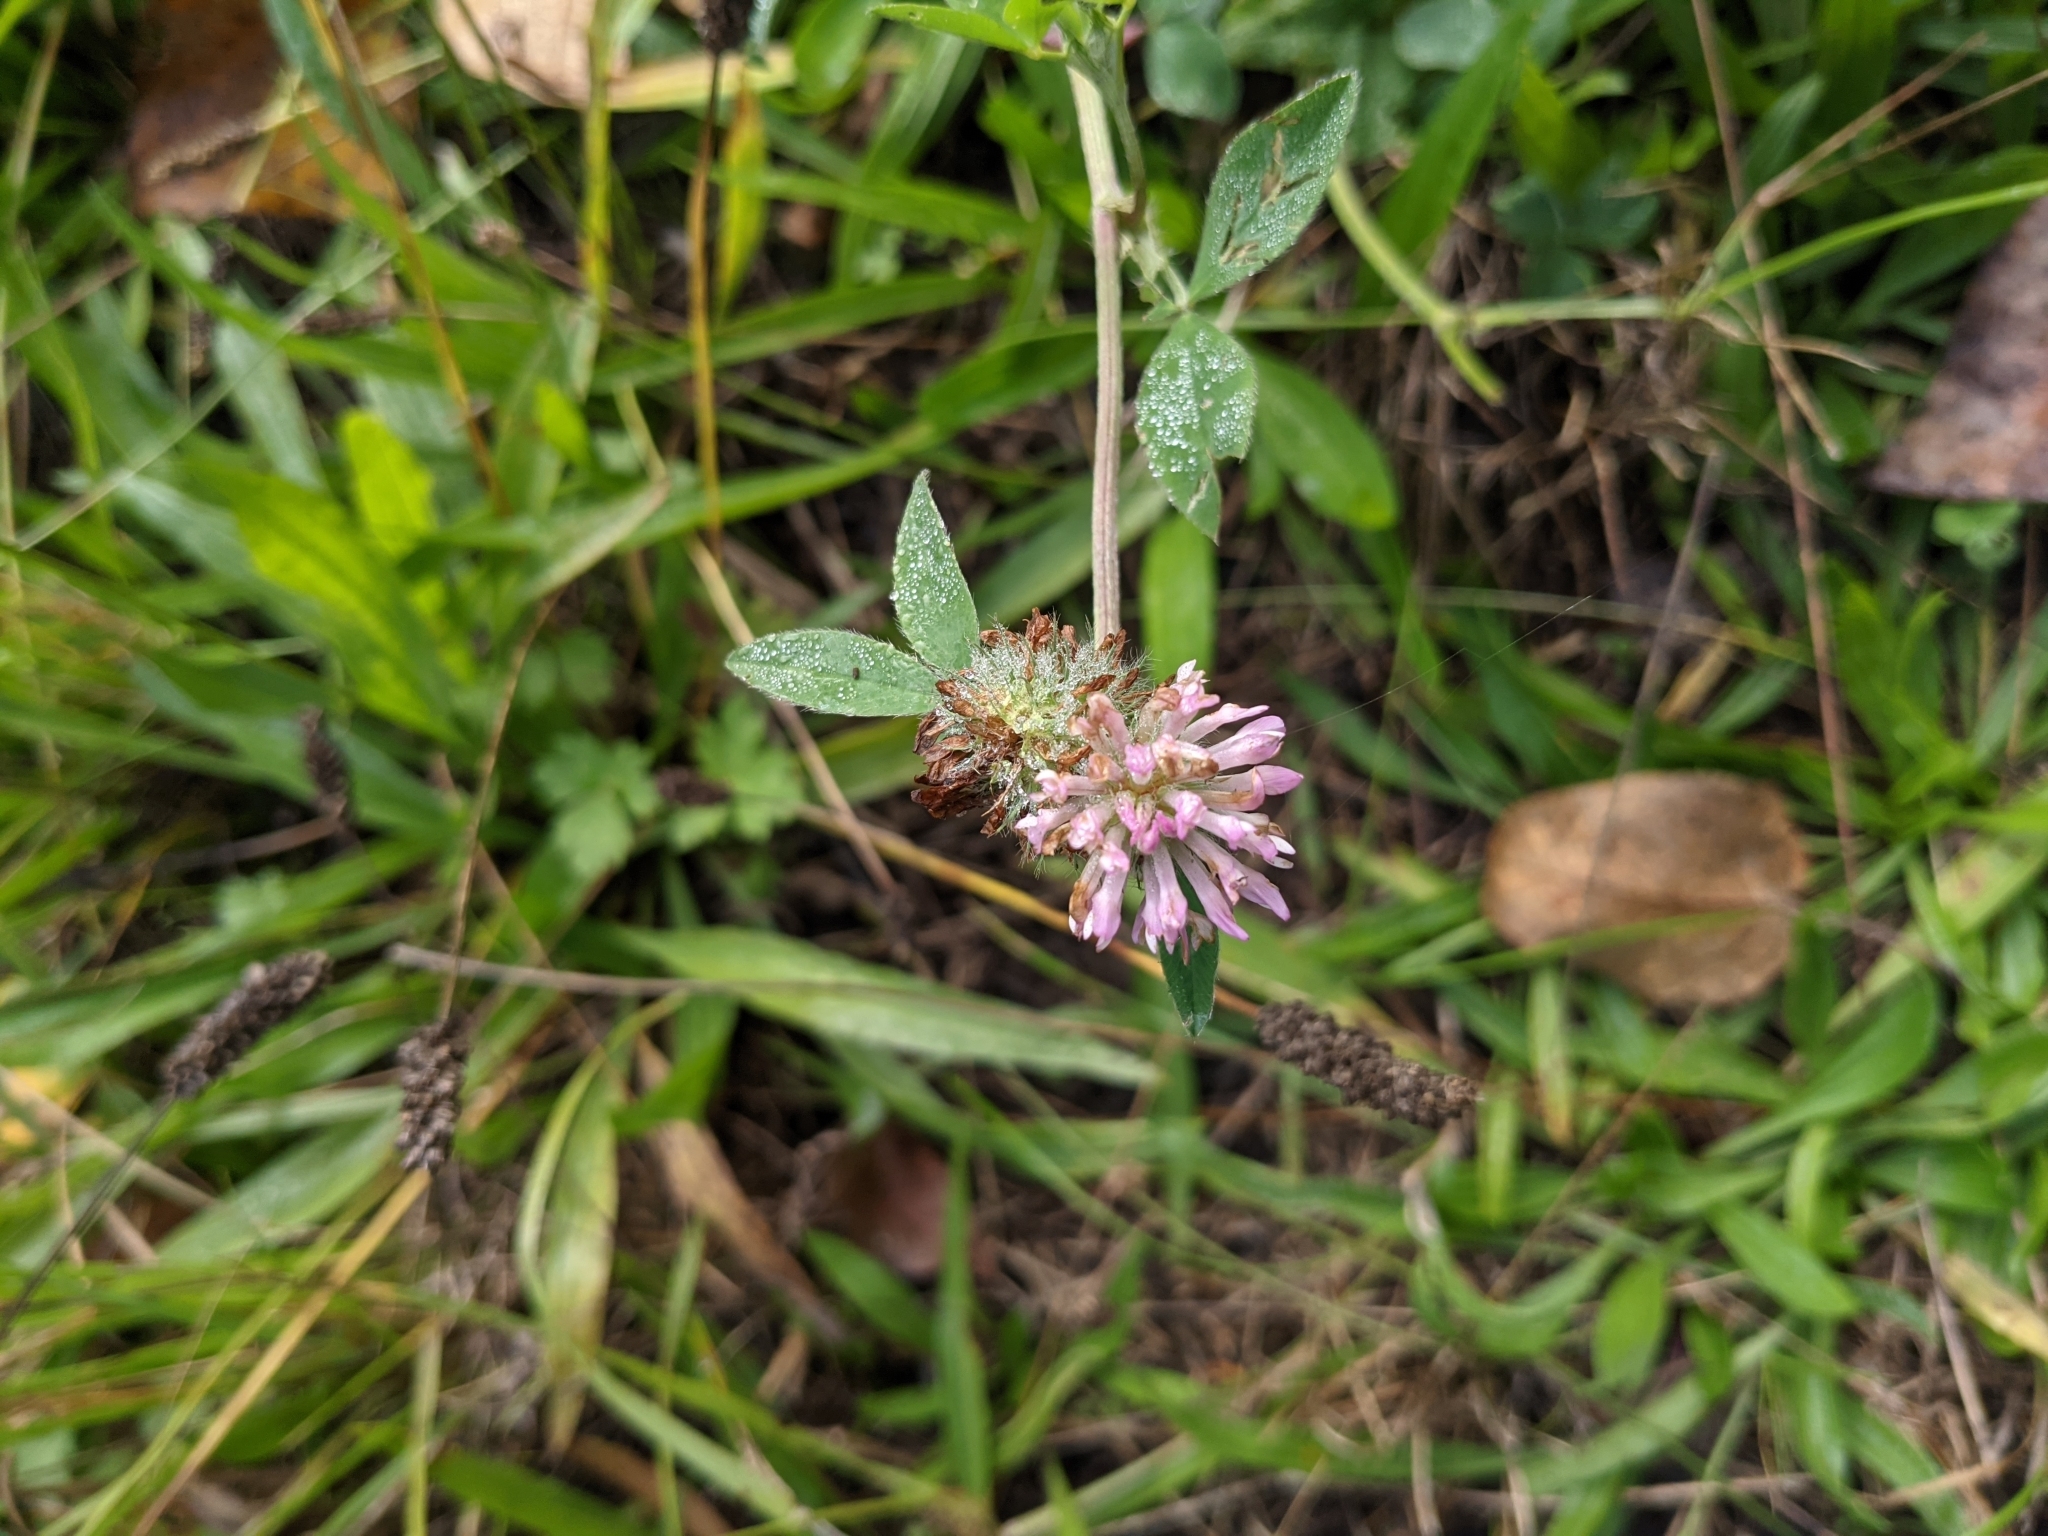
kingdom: Plantae
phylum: Tracheophyta
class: Magnoliopsida
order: Fabales
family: Fabaceae
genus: Trifolium
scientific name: Trifolium pratense
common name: Red clover
